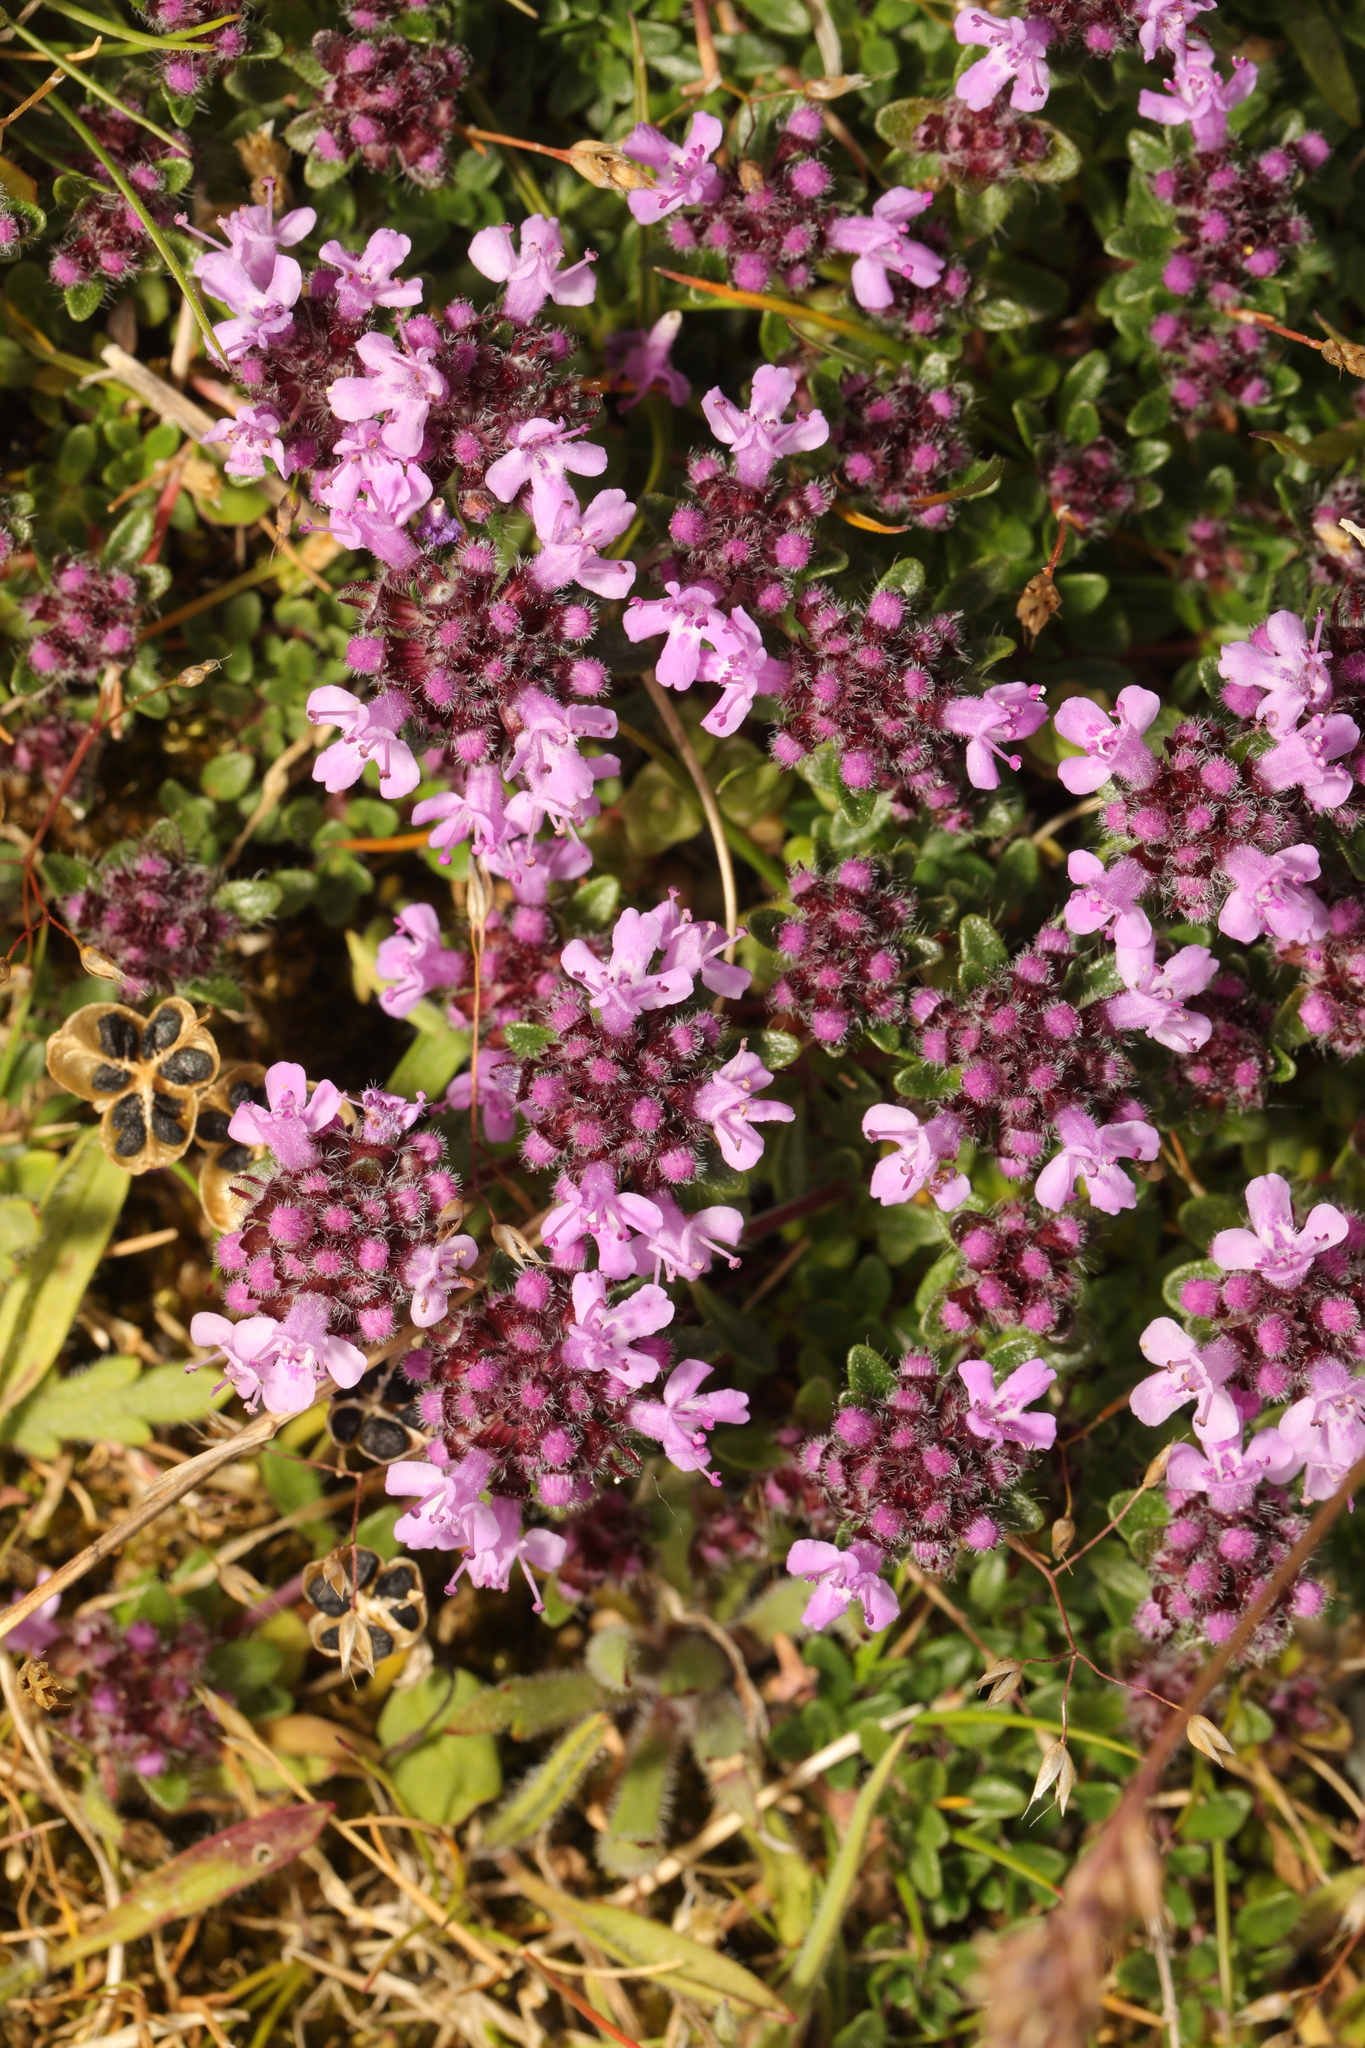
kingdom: Plantae
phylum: Tracheophyta
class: Magnoliopsida
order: Lamiales
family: Lamiaceae
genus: Thymus
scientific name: Thymus praecox
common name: Wild thyme
